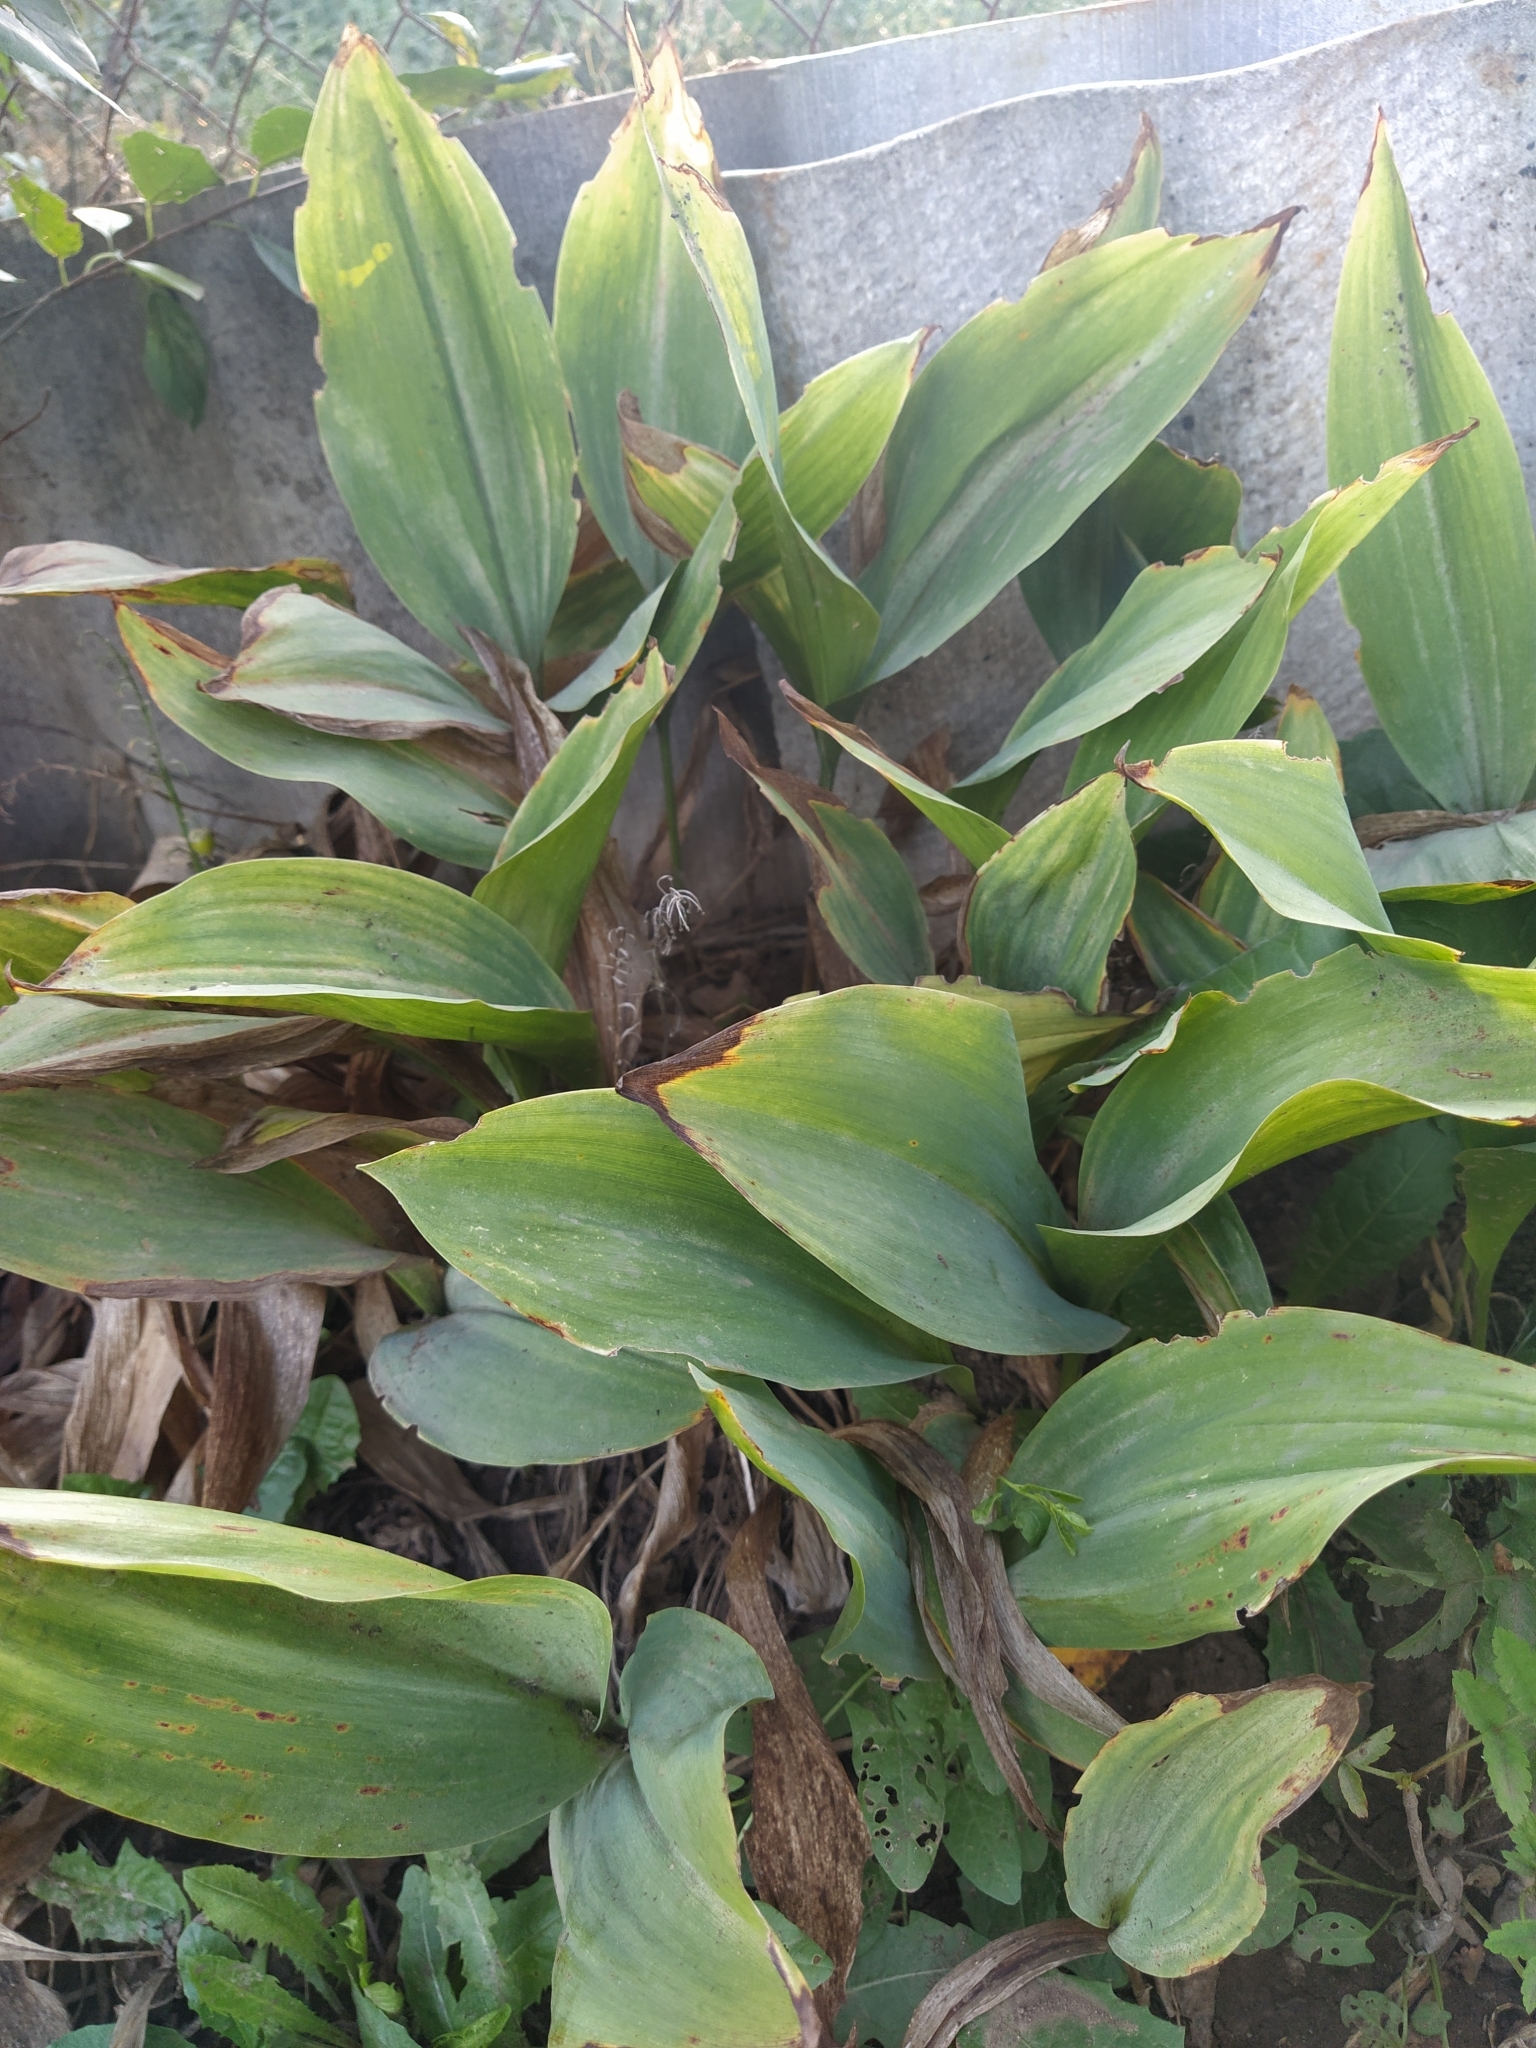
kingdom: Plantae
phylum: Tracheophyta
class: Liliopsida
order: Asparagales
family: Asparagaceae
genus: Convallaria
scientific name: Convallaria majalis
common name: Lily-of-the-valley
